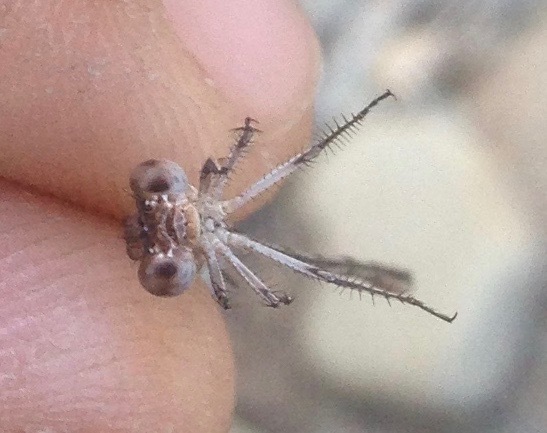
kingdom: Animalia
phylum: Arthropoda
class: Insecta
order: Odonata
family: Coenagrionidae
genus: Argia
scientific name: Argia vivida
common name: Vivid dancer
